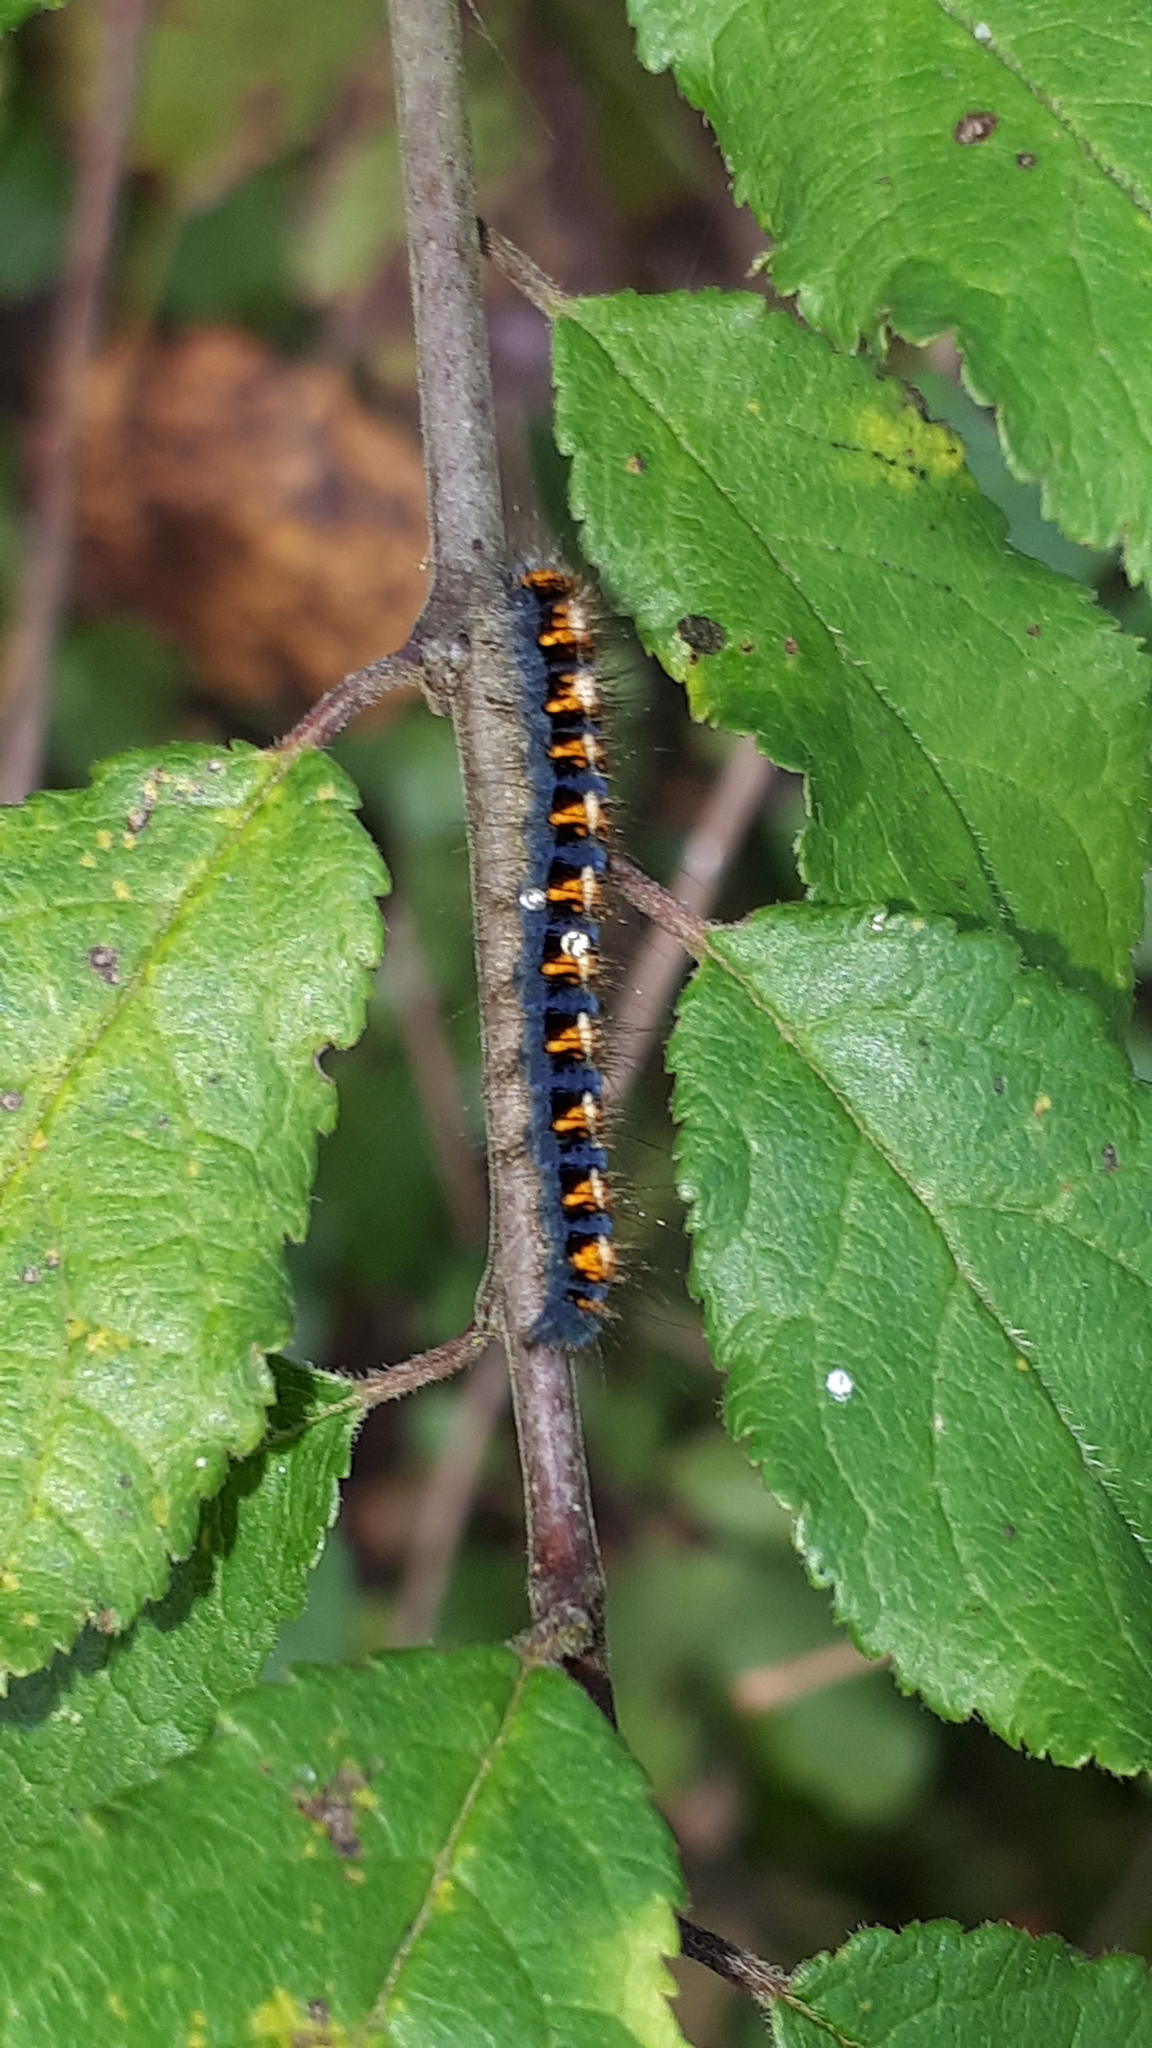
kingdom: Animalia
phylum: Arthropoda
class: Insecta
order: Lepidoptera
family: Lasiocampidae
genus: Lasiocampa
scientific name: Lasiocampa quercus
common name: Oak eggar
